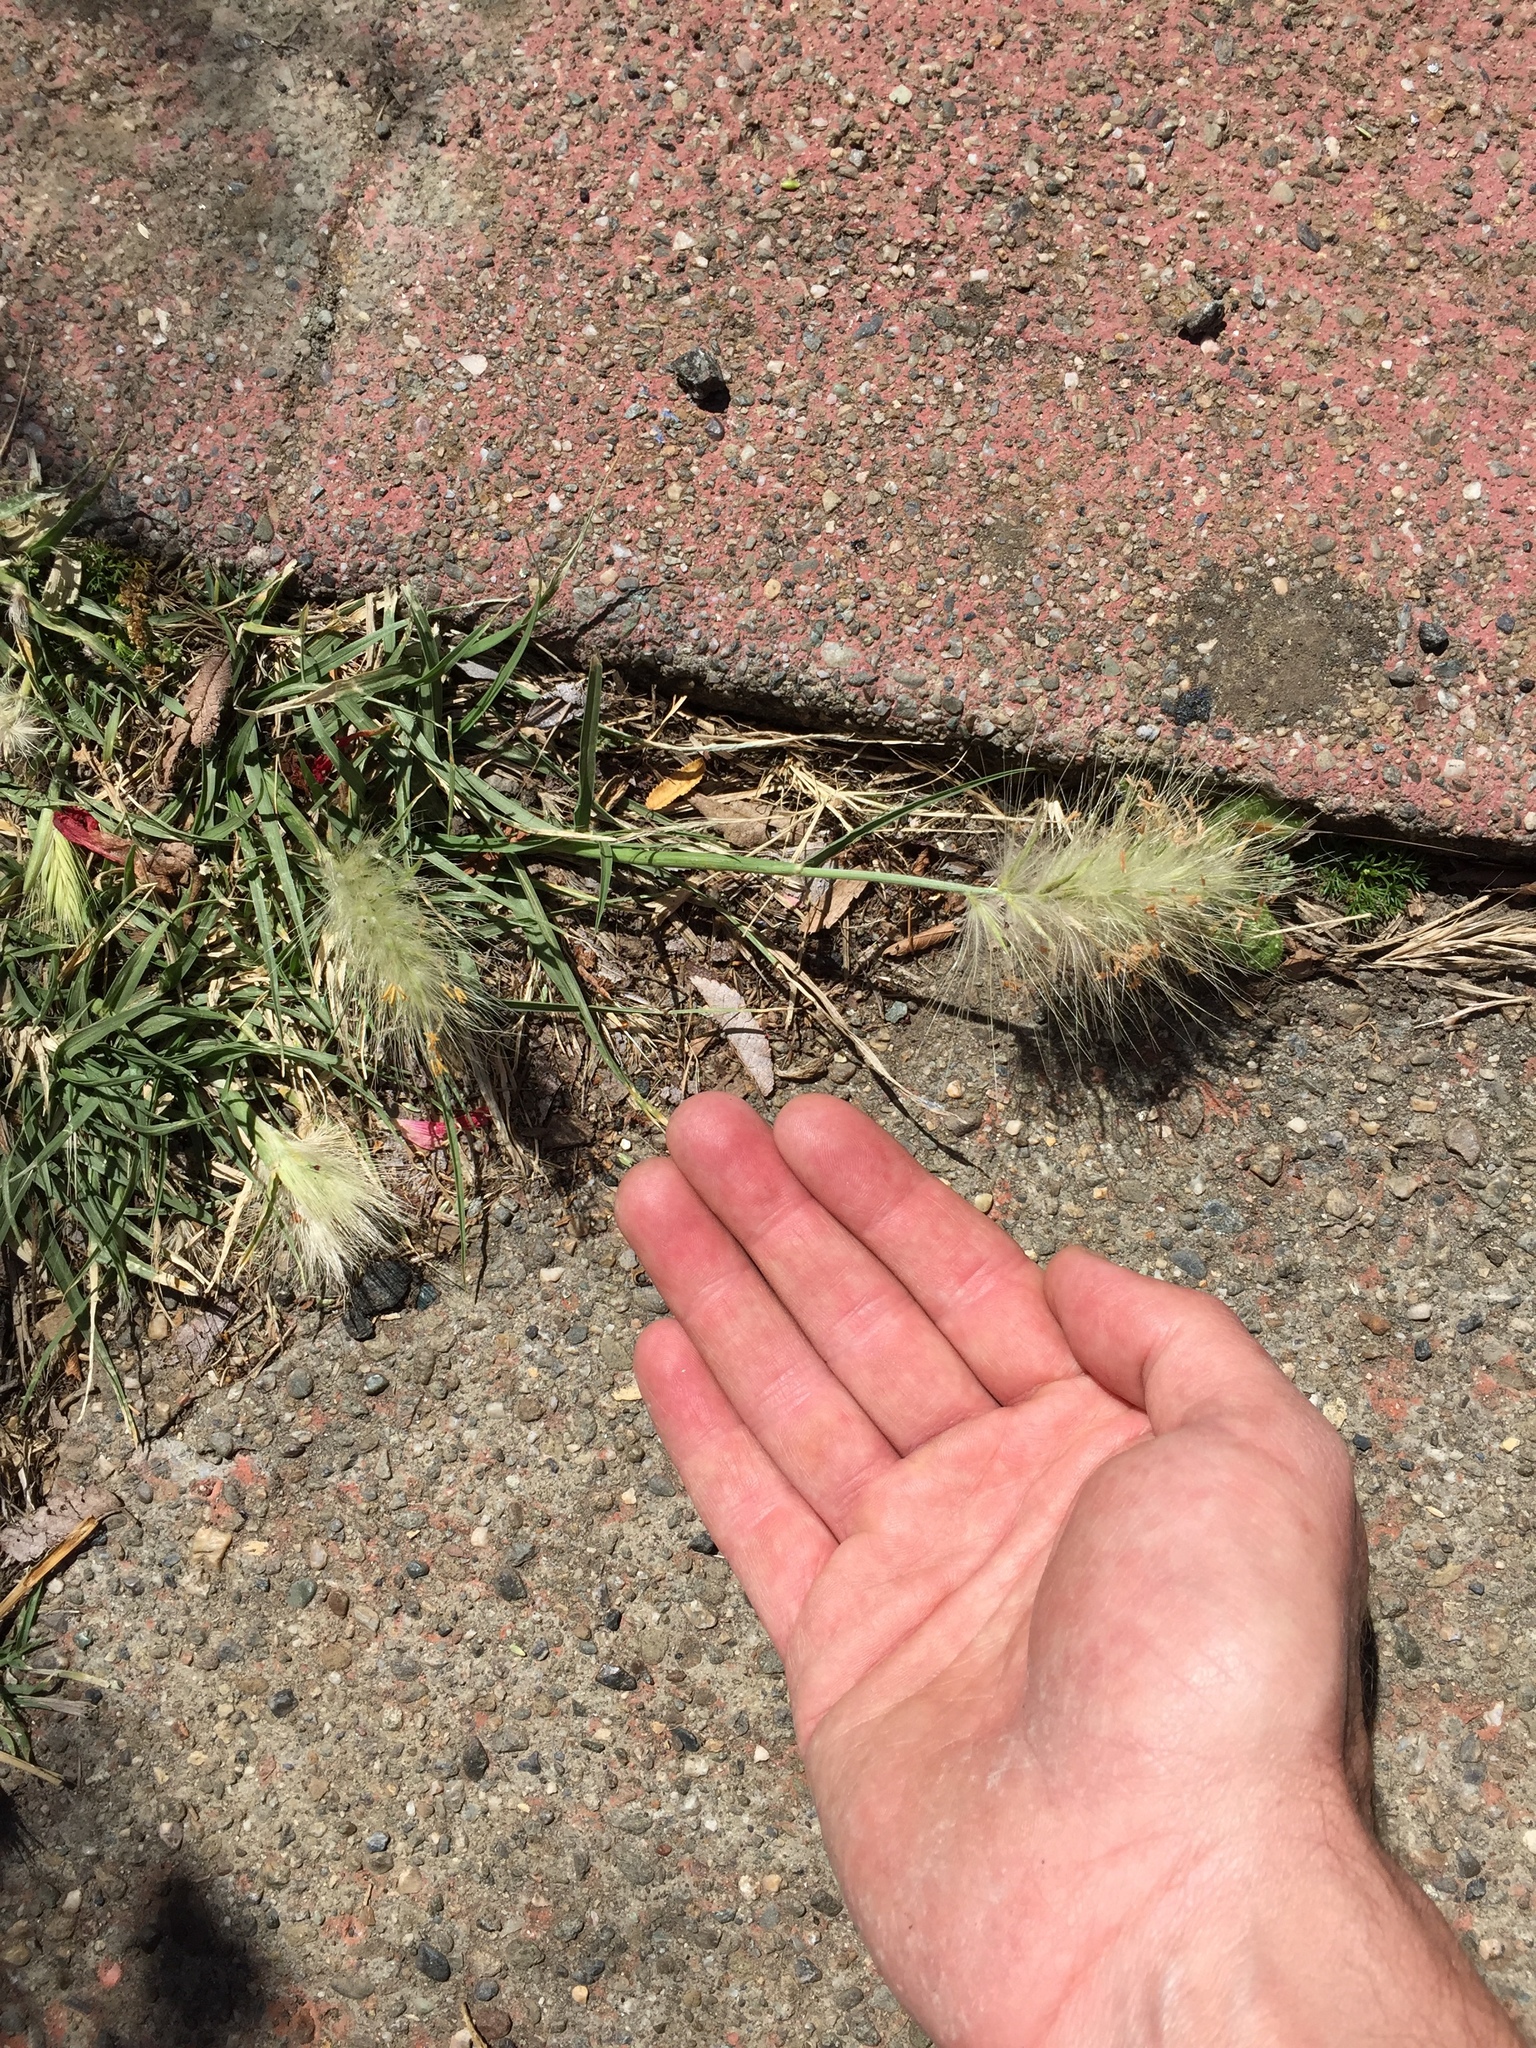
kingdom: Plantae
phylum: Tracheophyta
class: Liliopsida
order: Poales
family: Poaceae
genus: Cenchrus
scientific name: Cenchrus longisetus
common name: Feathertop
